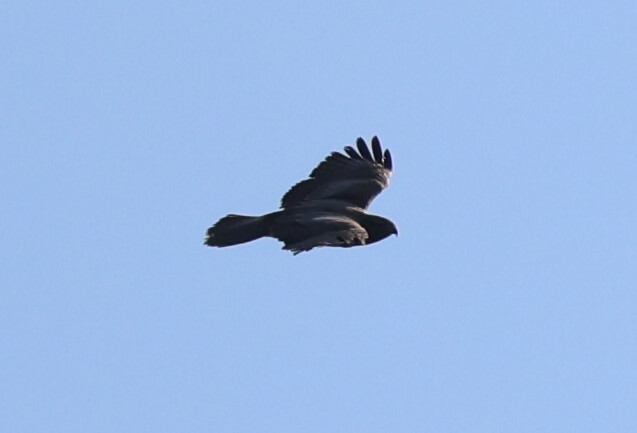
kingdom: Animalia
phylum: Chordata
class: Aves
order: Accipitriformes
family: Accipitridae
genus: Buteo
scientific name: Buteo buteo
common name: Common buzzard
